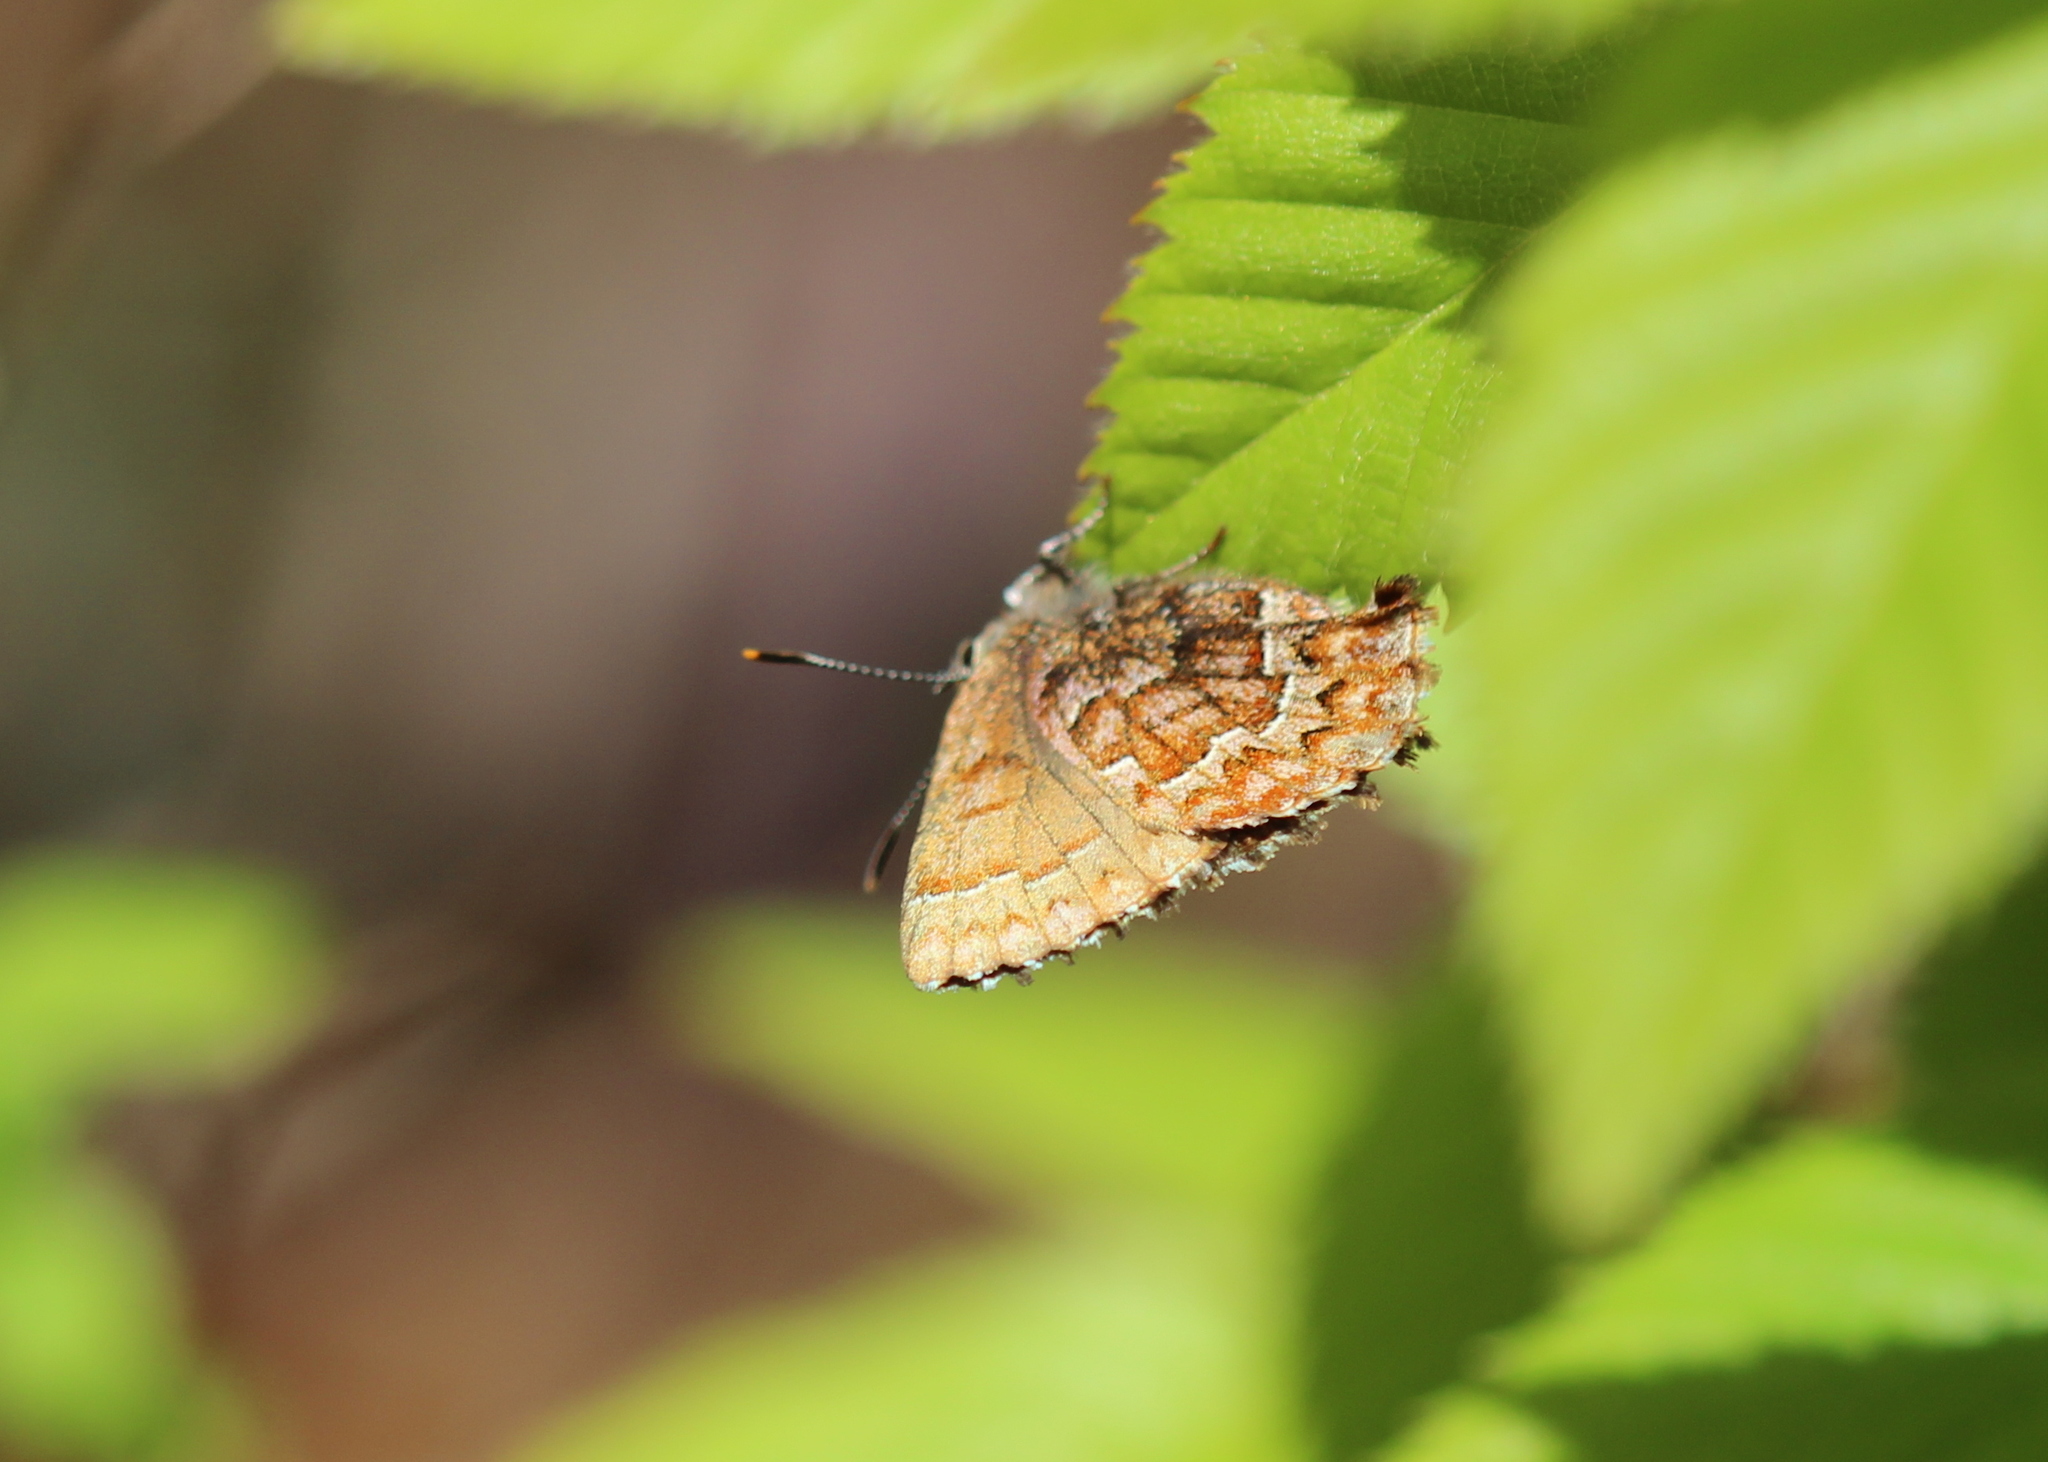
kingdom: Animalia
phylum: Arthropoda
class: Insecta
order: Lepidoptera
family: Lycaenidae
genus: Incisalia
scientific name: Incisalia niphon
